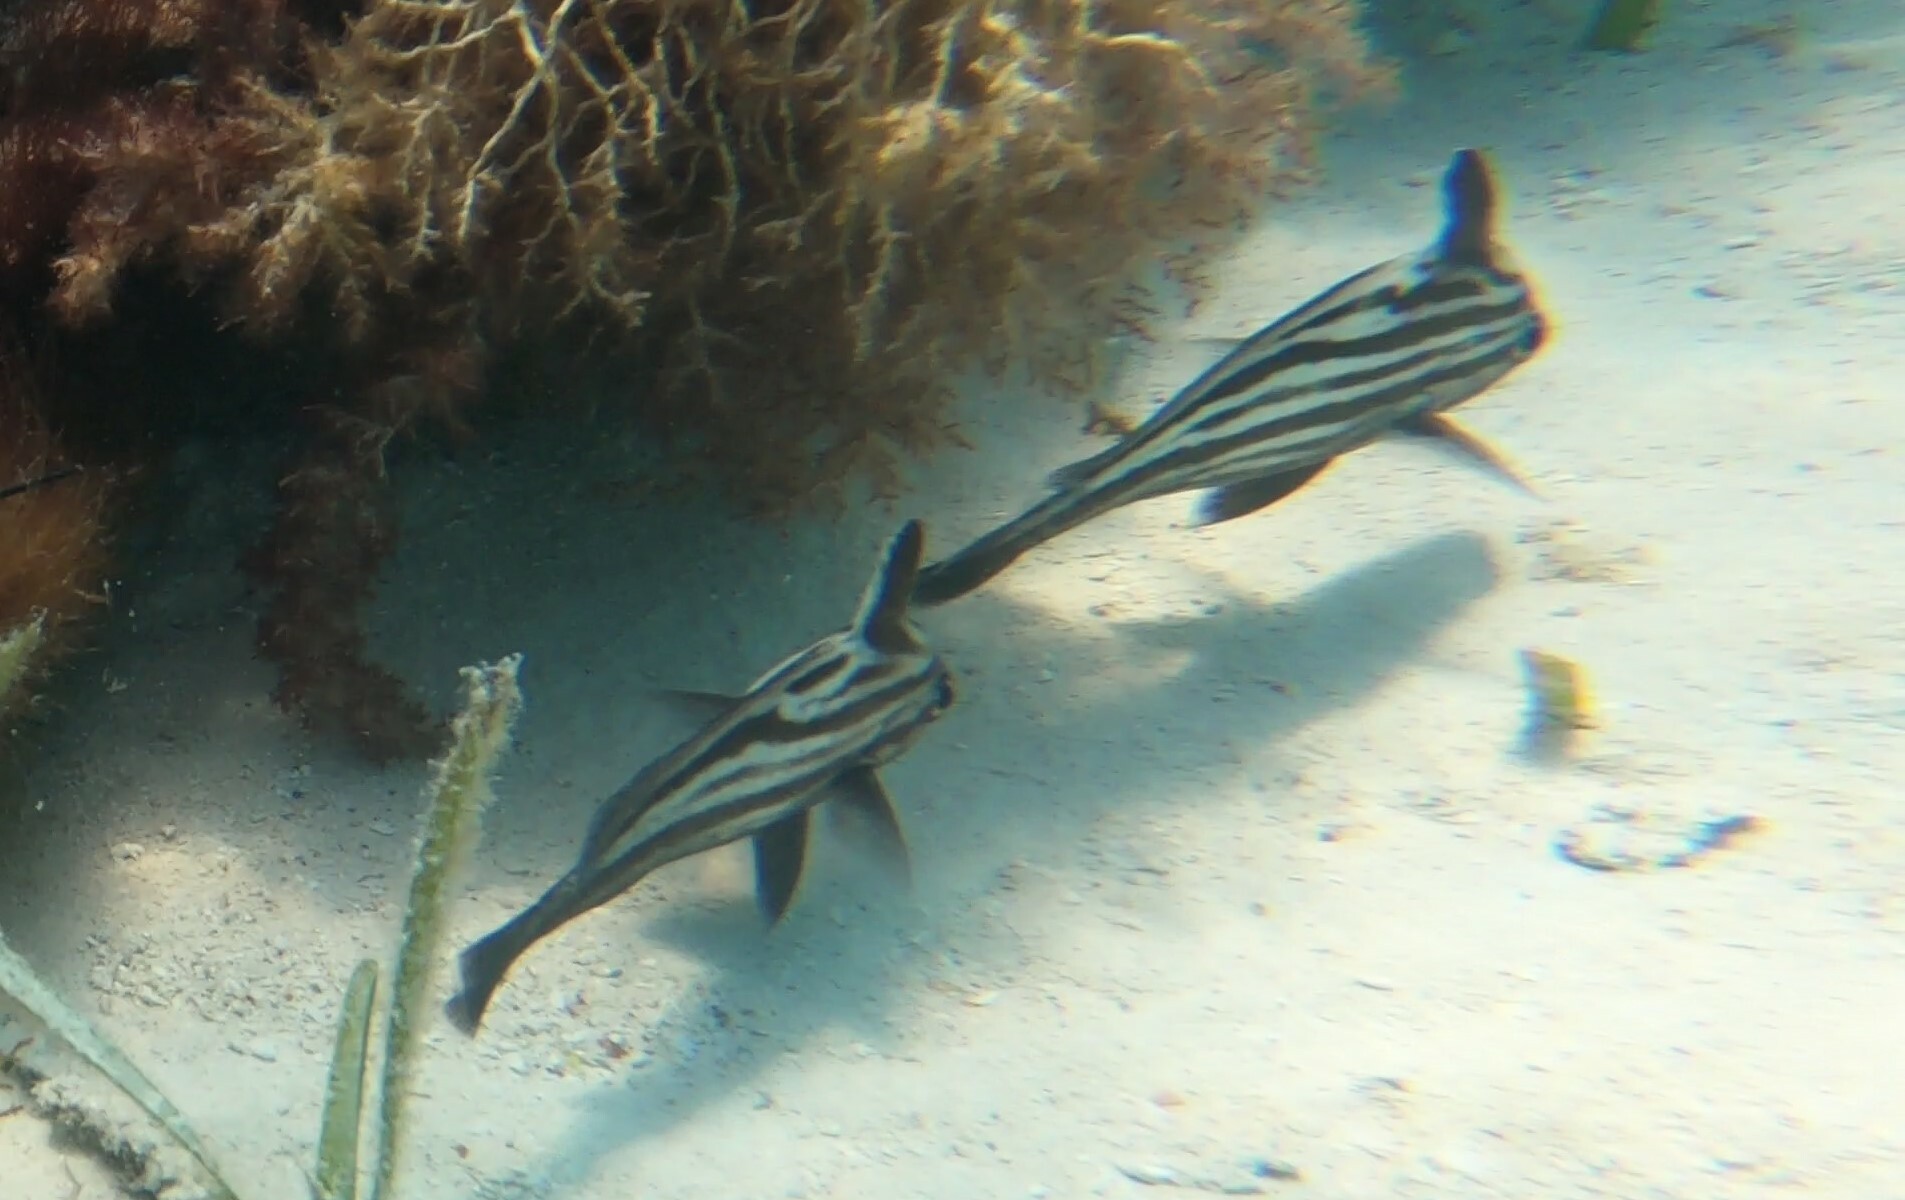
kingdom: Animalia
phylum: Chordata
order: Perciformes
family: Sciaenidae
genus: Pareques
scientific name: Pareques acuminatus
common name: High-hat
